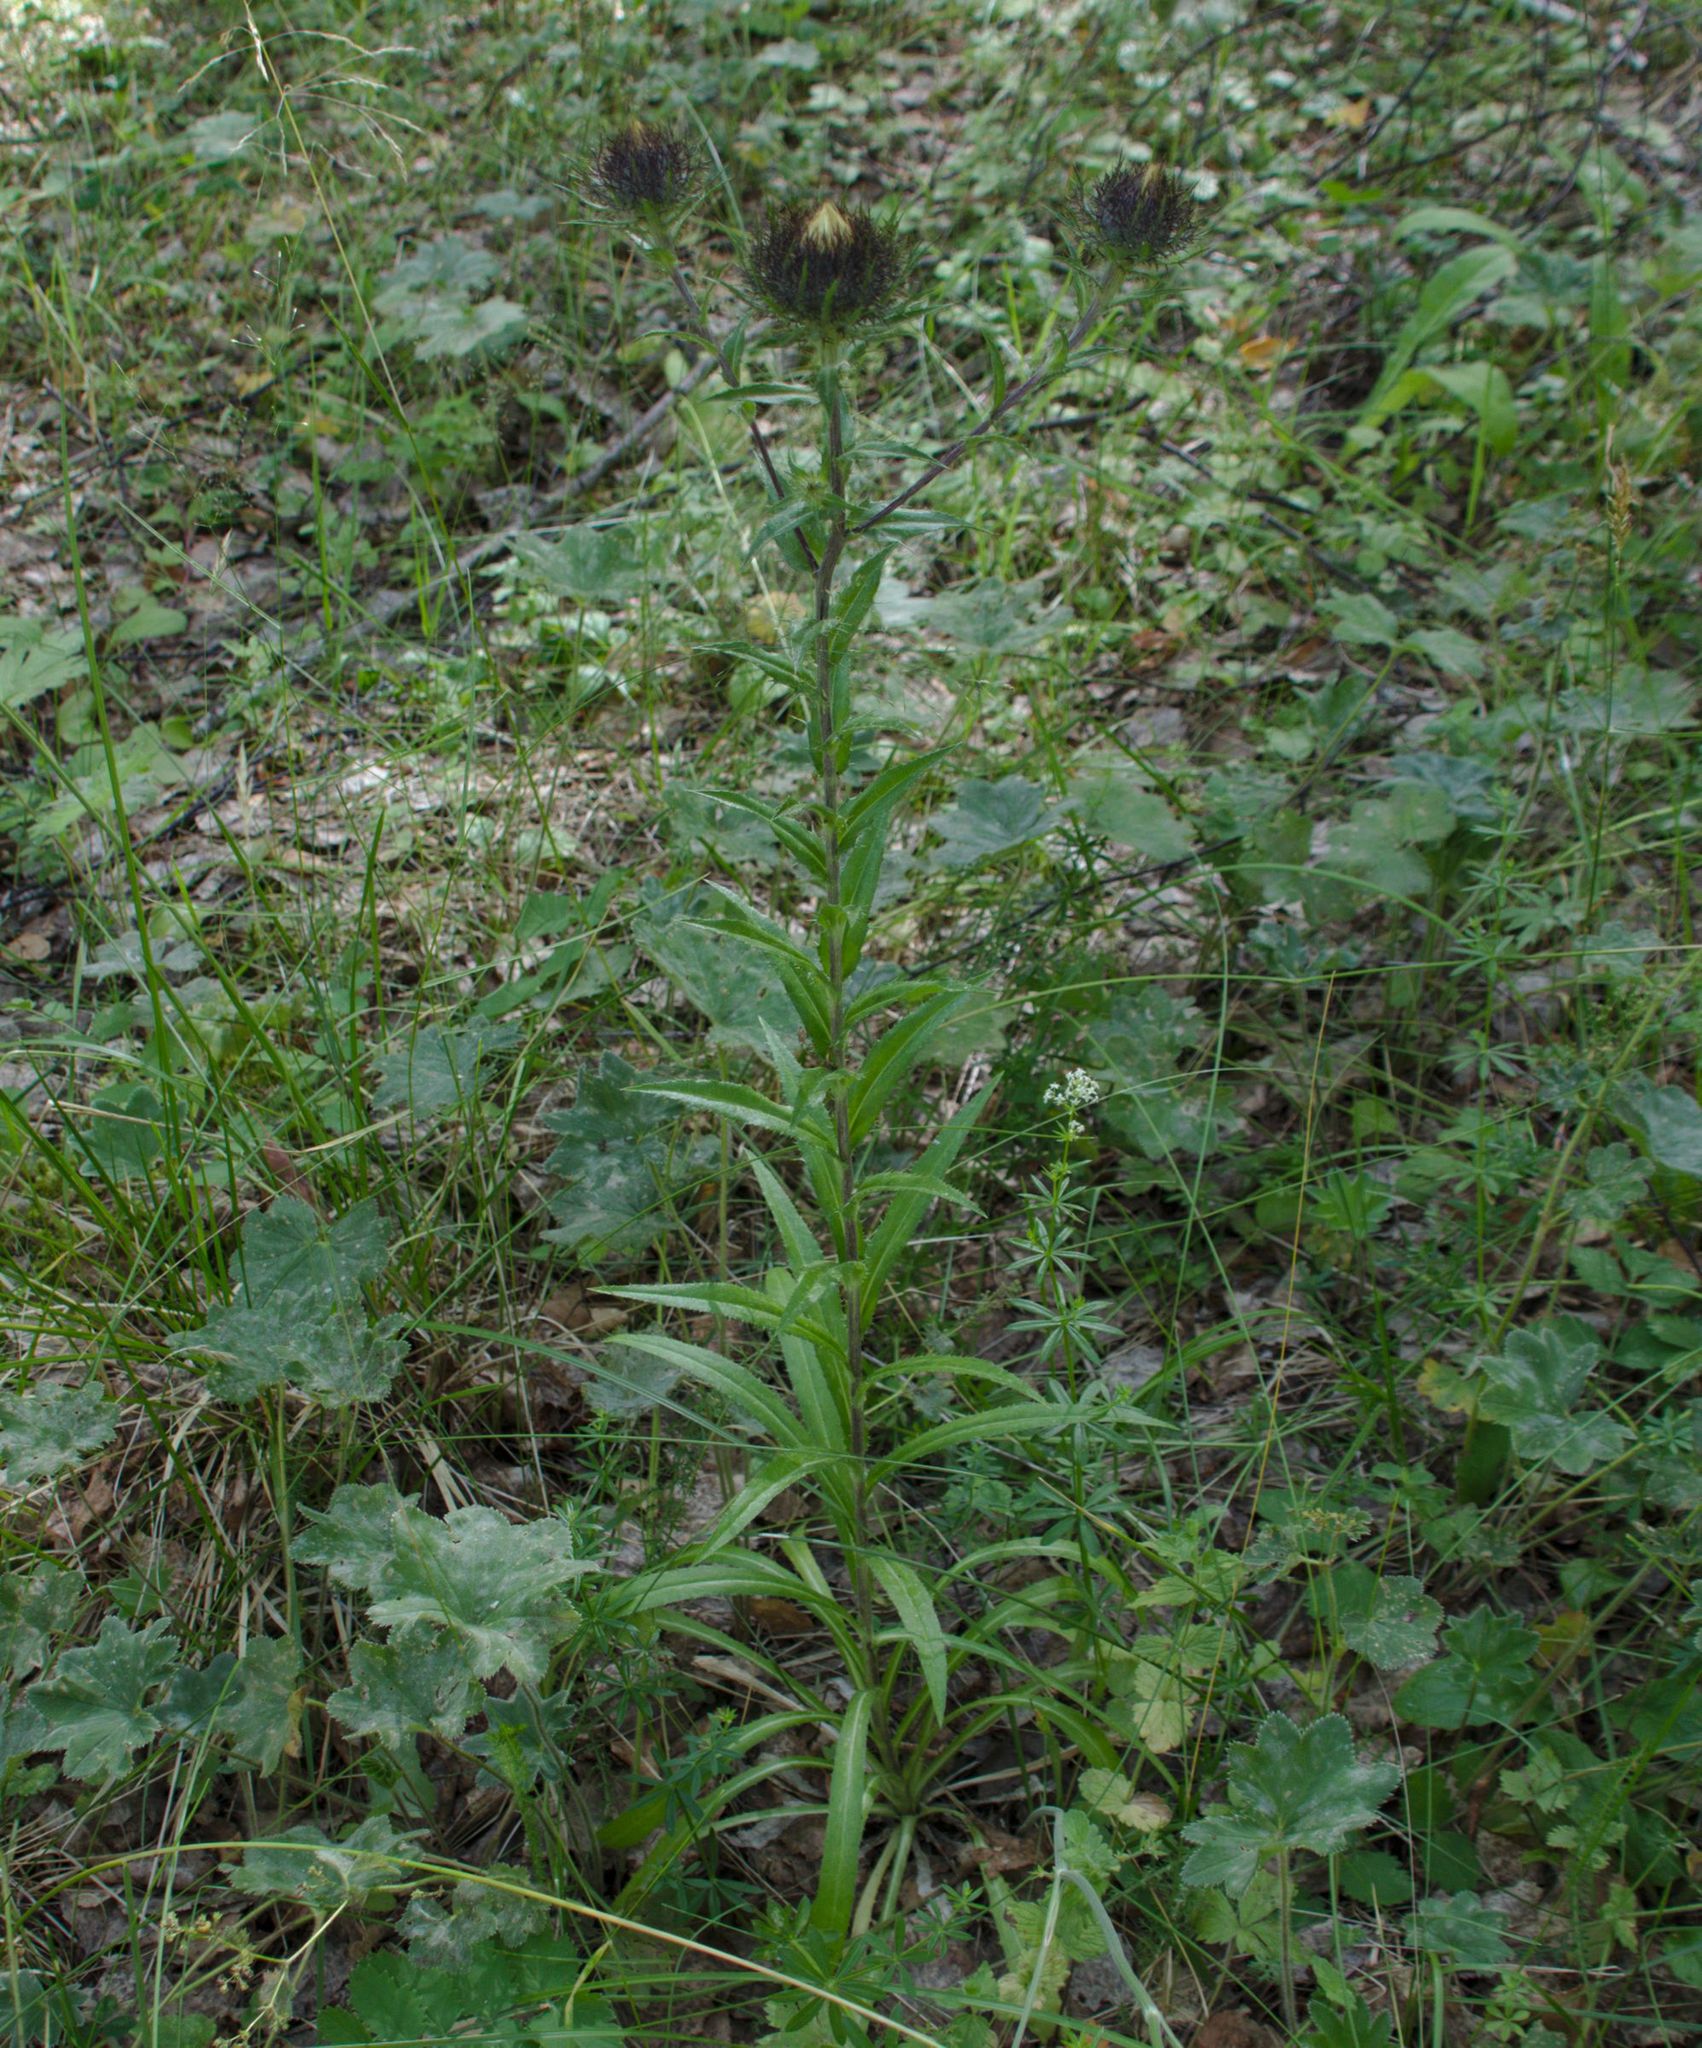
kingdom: Plantae
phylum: Tracheophyta
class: Magnoliopsida
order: Asterales
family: Asteraceae
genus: Carlina
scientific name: Carlina biebersteinii
